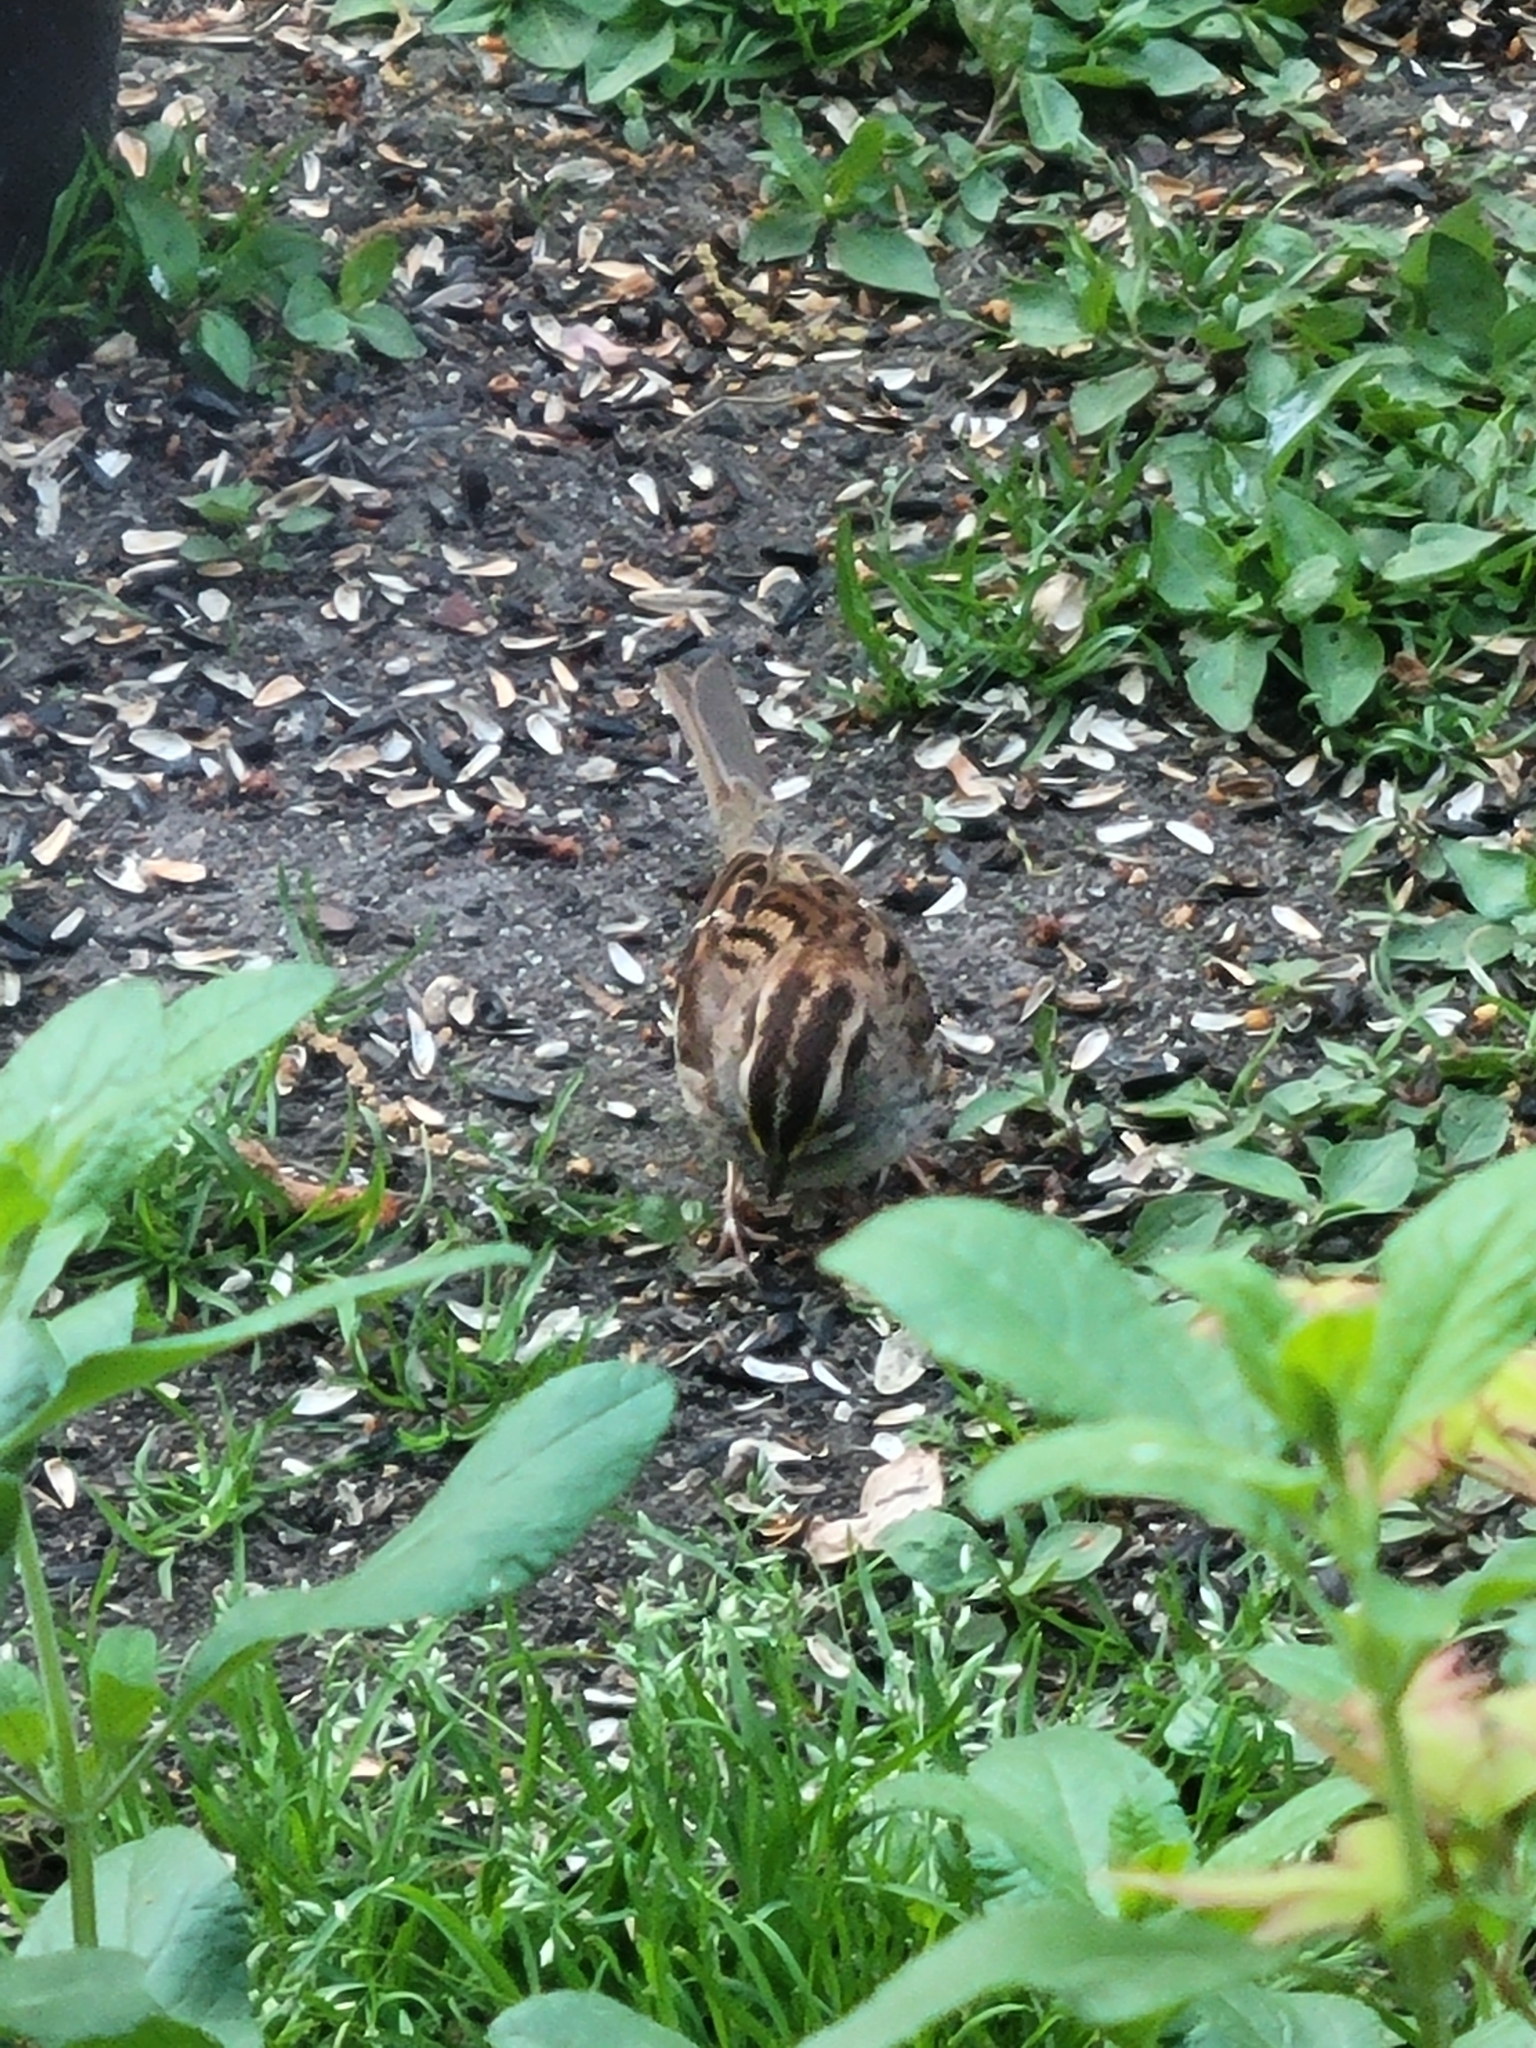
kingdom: Animalia
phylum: Chordata
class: Aves
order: Passeriformes
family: Passerellidae
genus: Zonotrichia
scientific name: Zonotrichia albicollis
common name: White-throated sparrow
